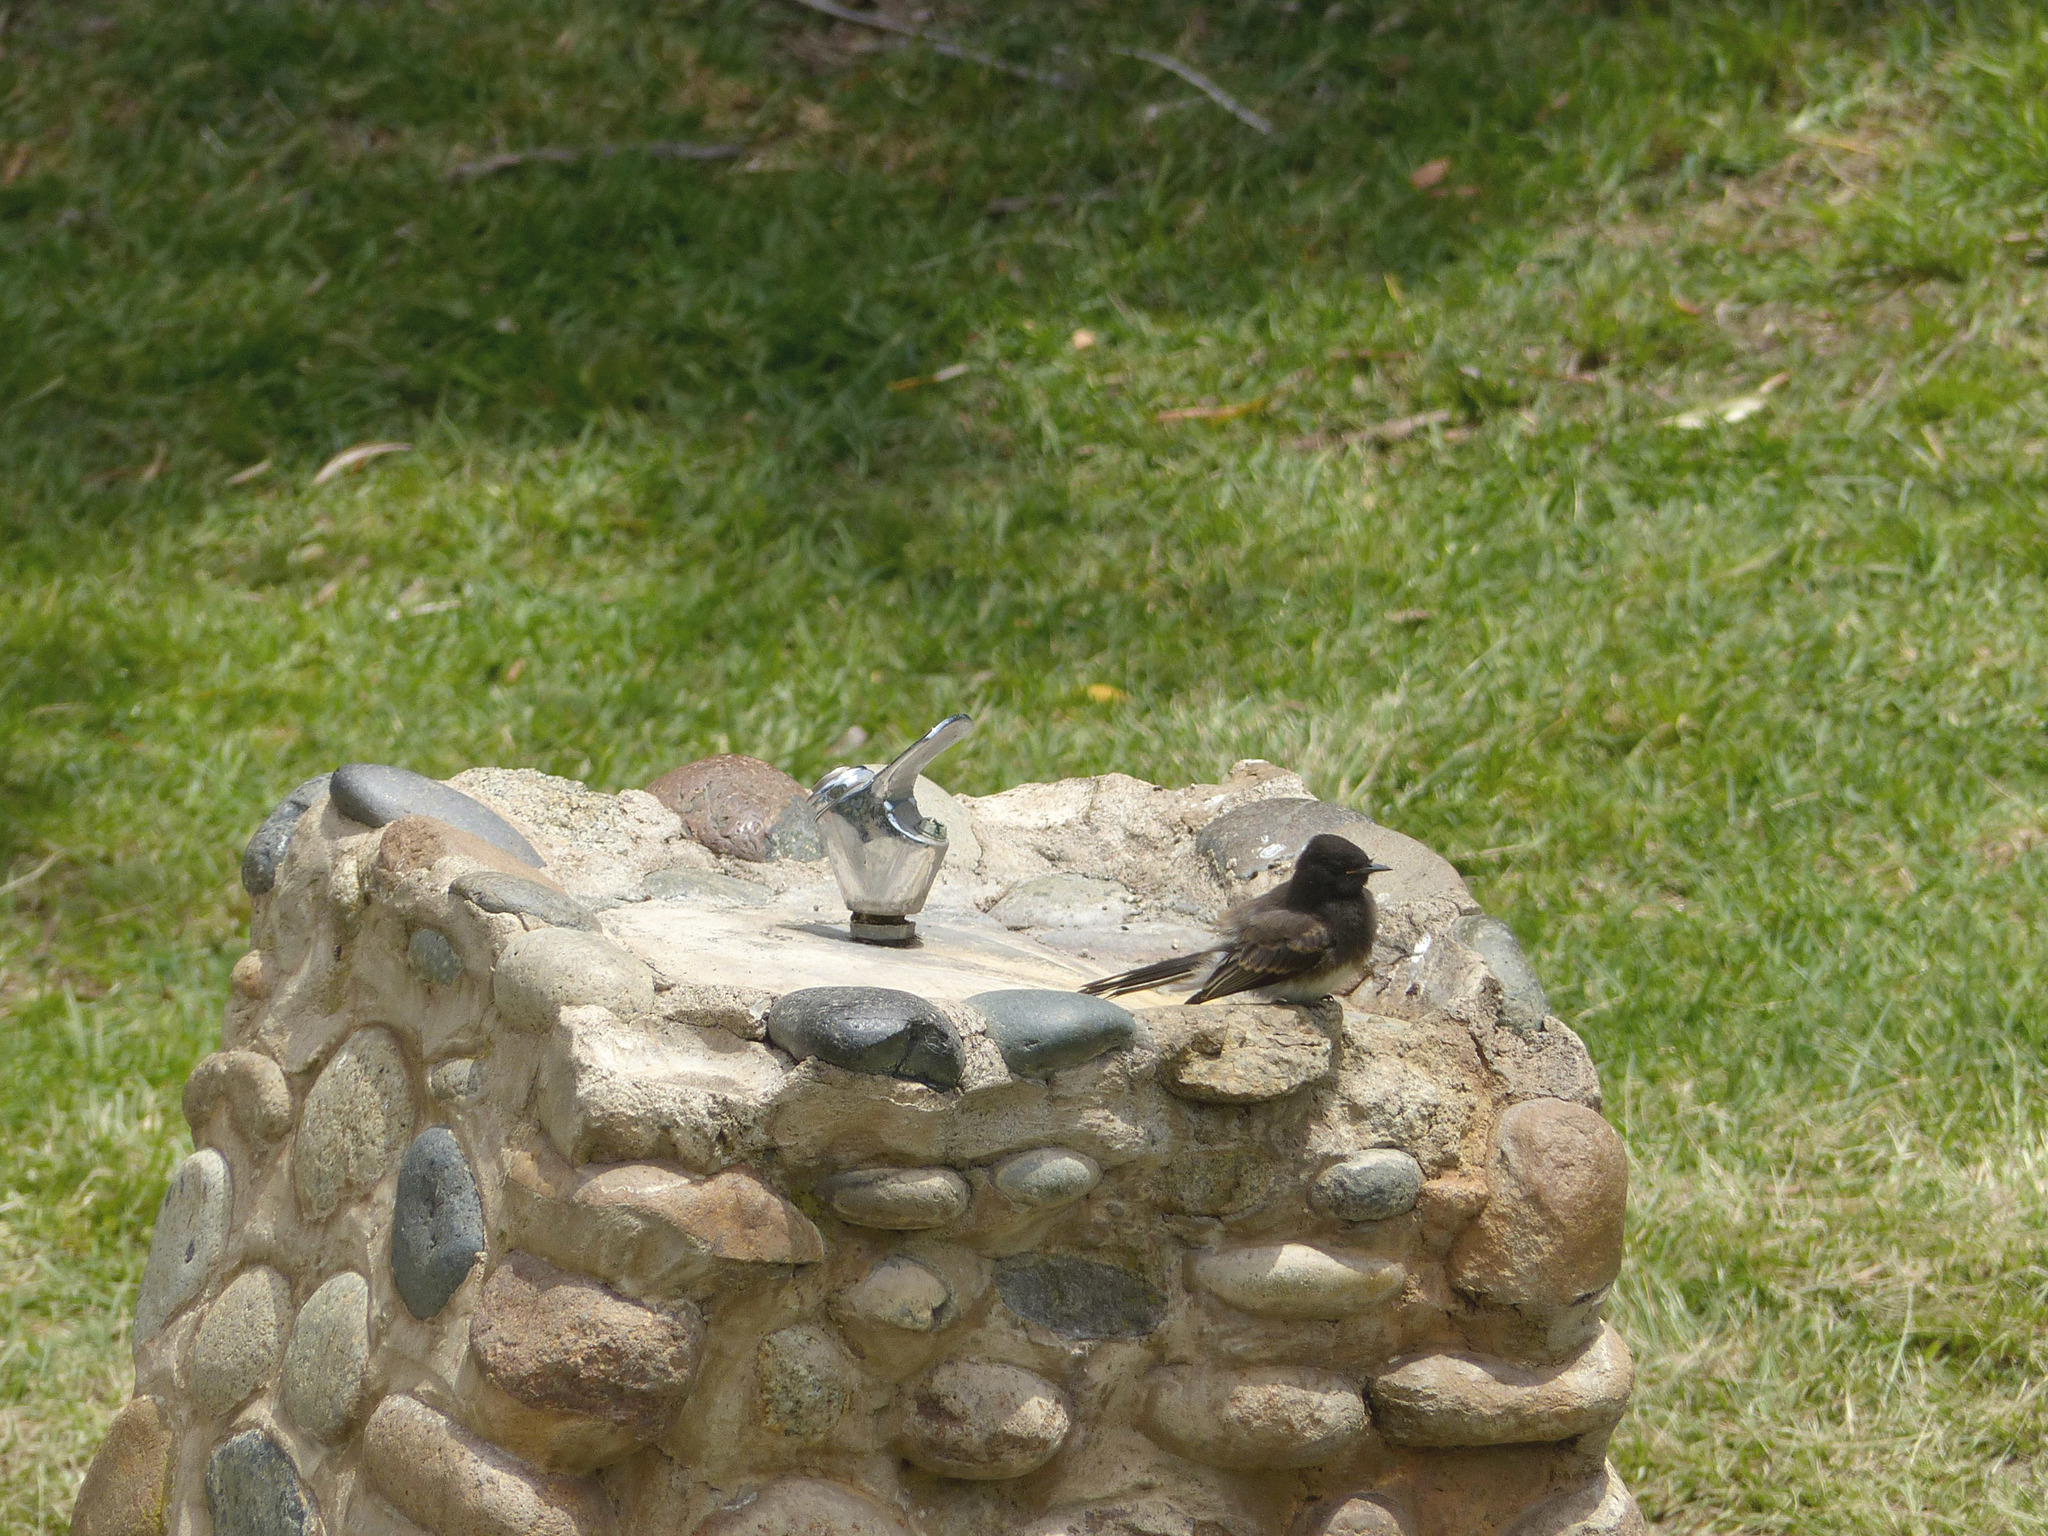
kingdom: Animalia
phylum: Chordata
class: Aves
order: Passeriformes
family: Tyrannidae
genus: Sayornis
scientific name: Sayornis nigricans
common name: Black phoebe
